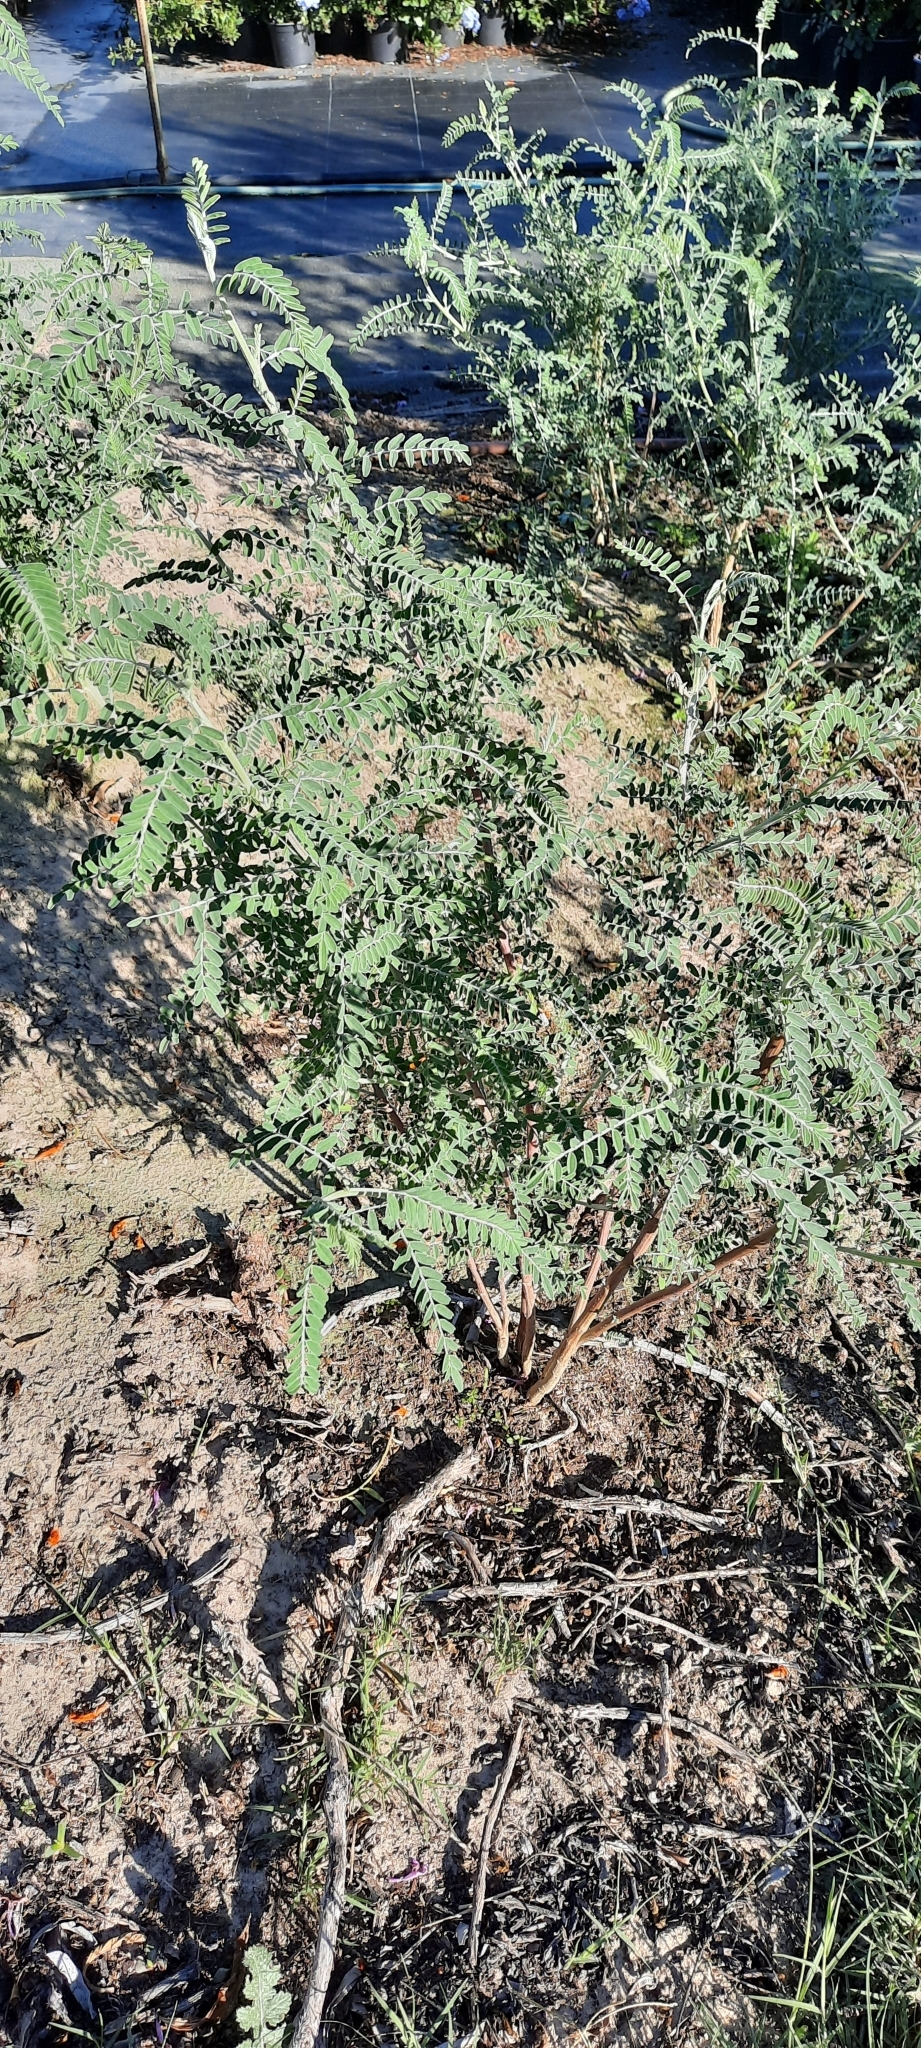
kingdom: Plantae
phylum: Tracheophyta
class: Magnoliopsida
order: Fabales
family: Fabaceae
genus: Lessertia
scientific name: Lessertia frutescens
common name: Balloon-pea
